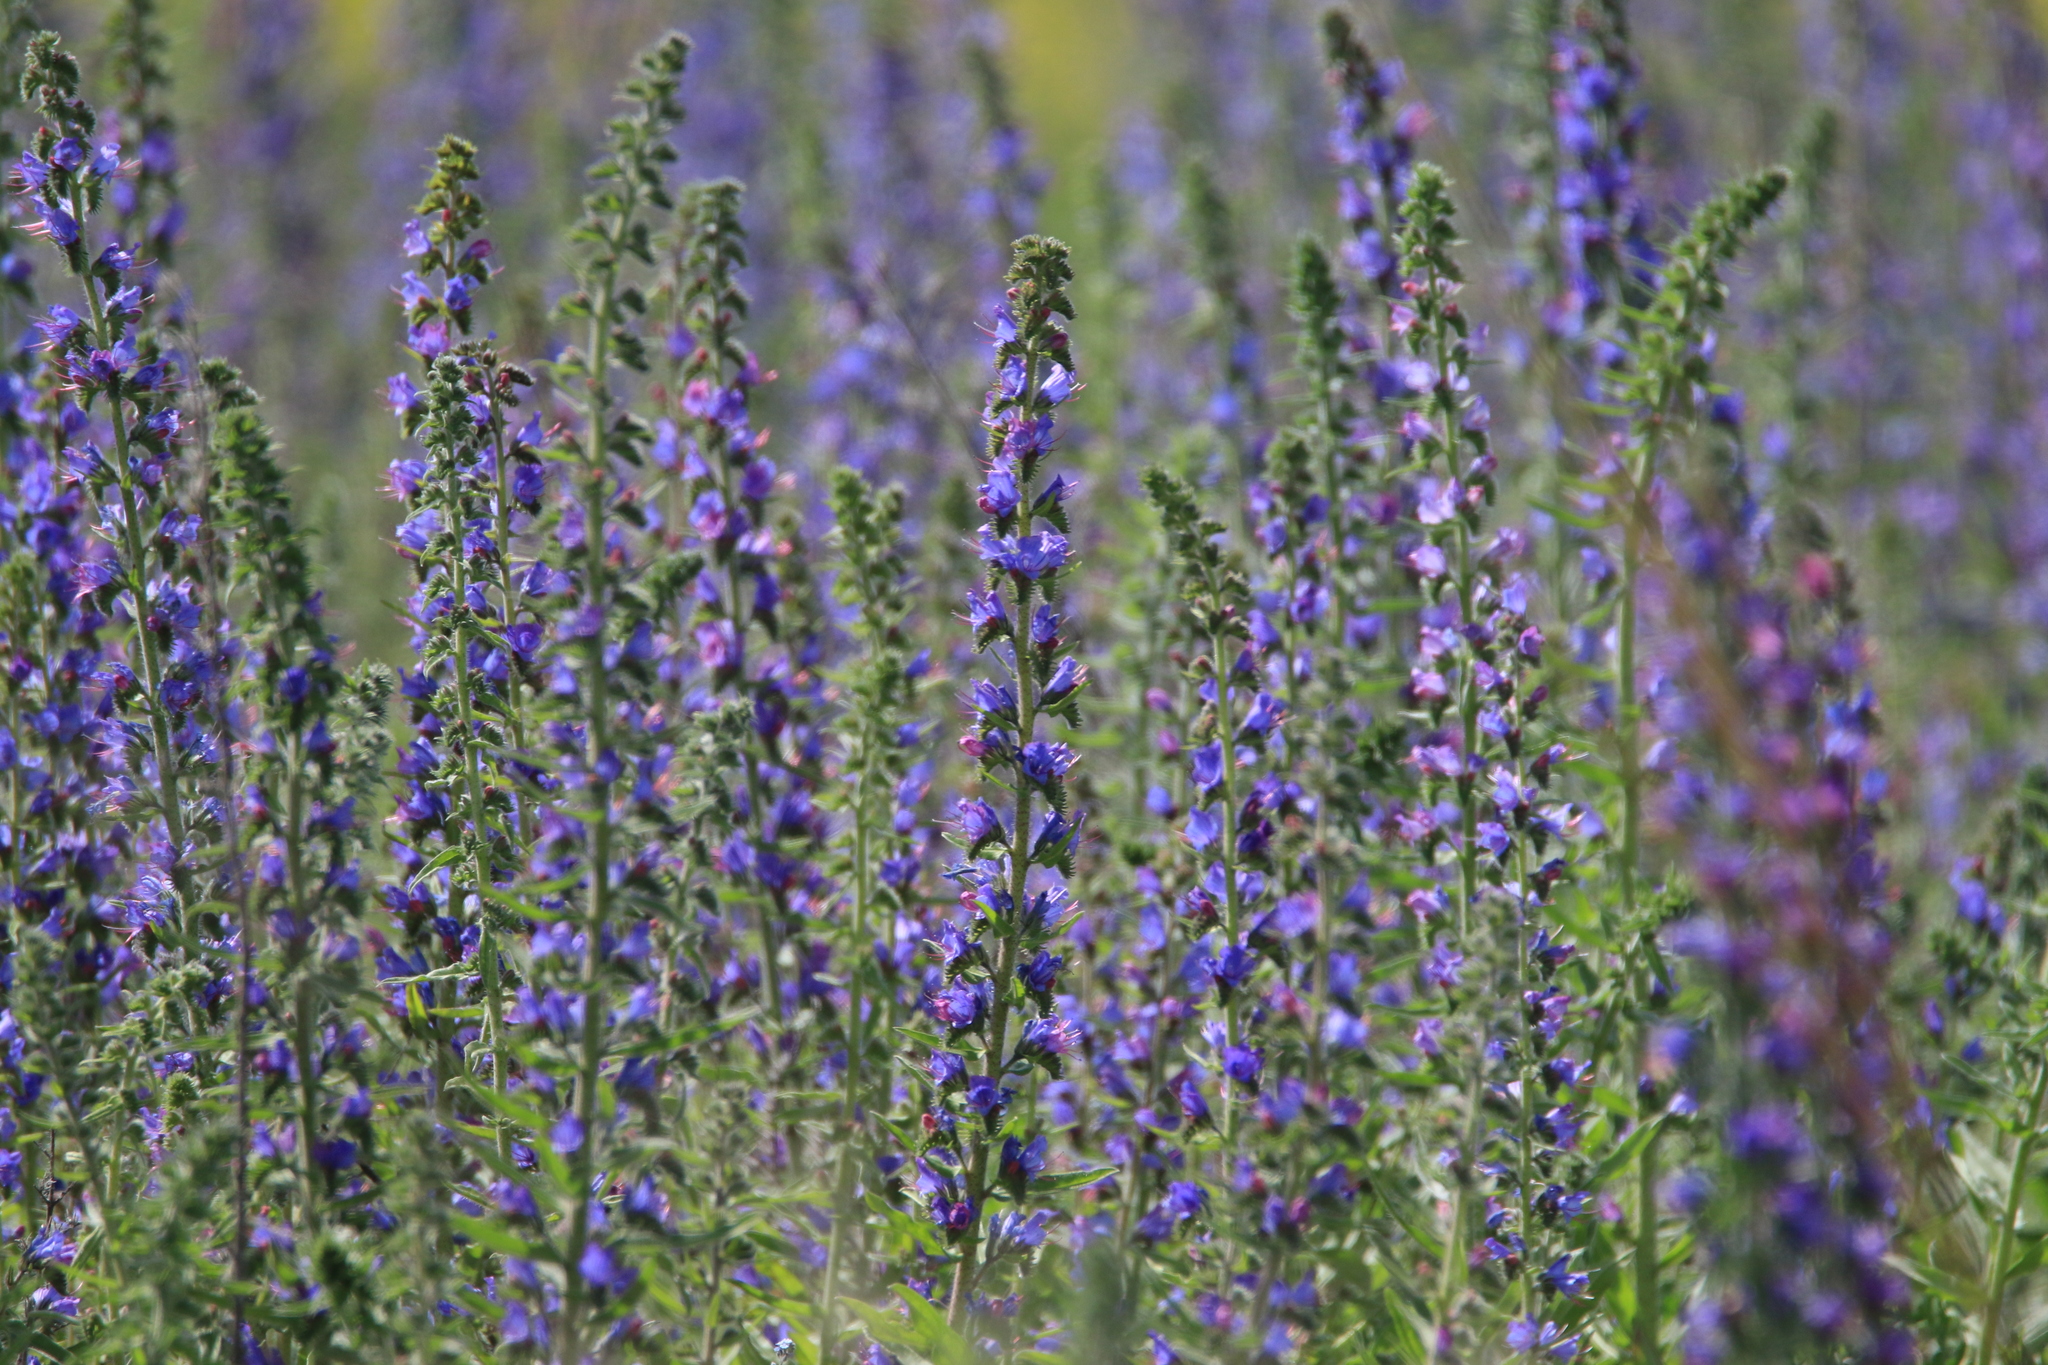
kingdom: Plantae
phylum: Tracheophyta
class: Magnoliopsida
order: Boraginales
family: Boraginaceae
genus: Echium
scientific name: Echium vulgare
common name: Common viper's bugloss
